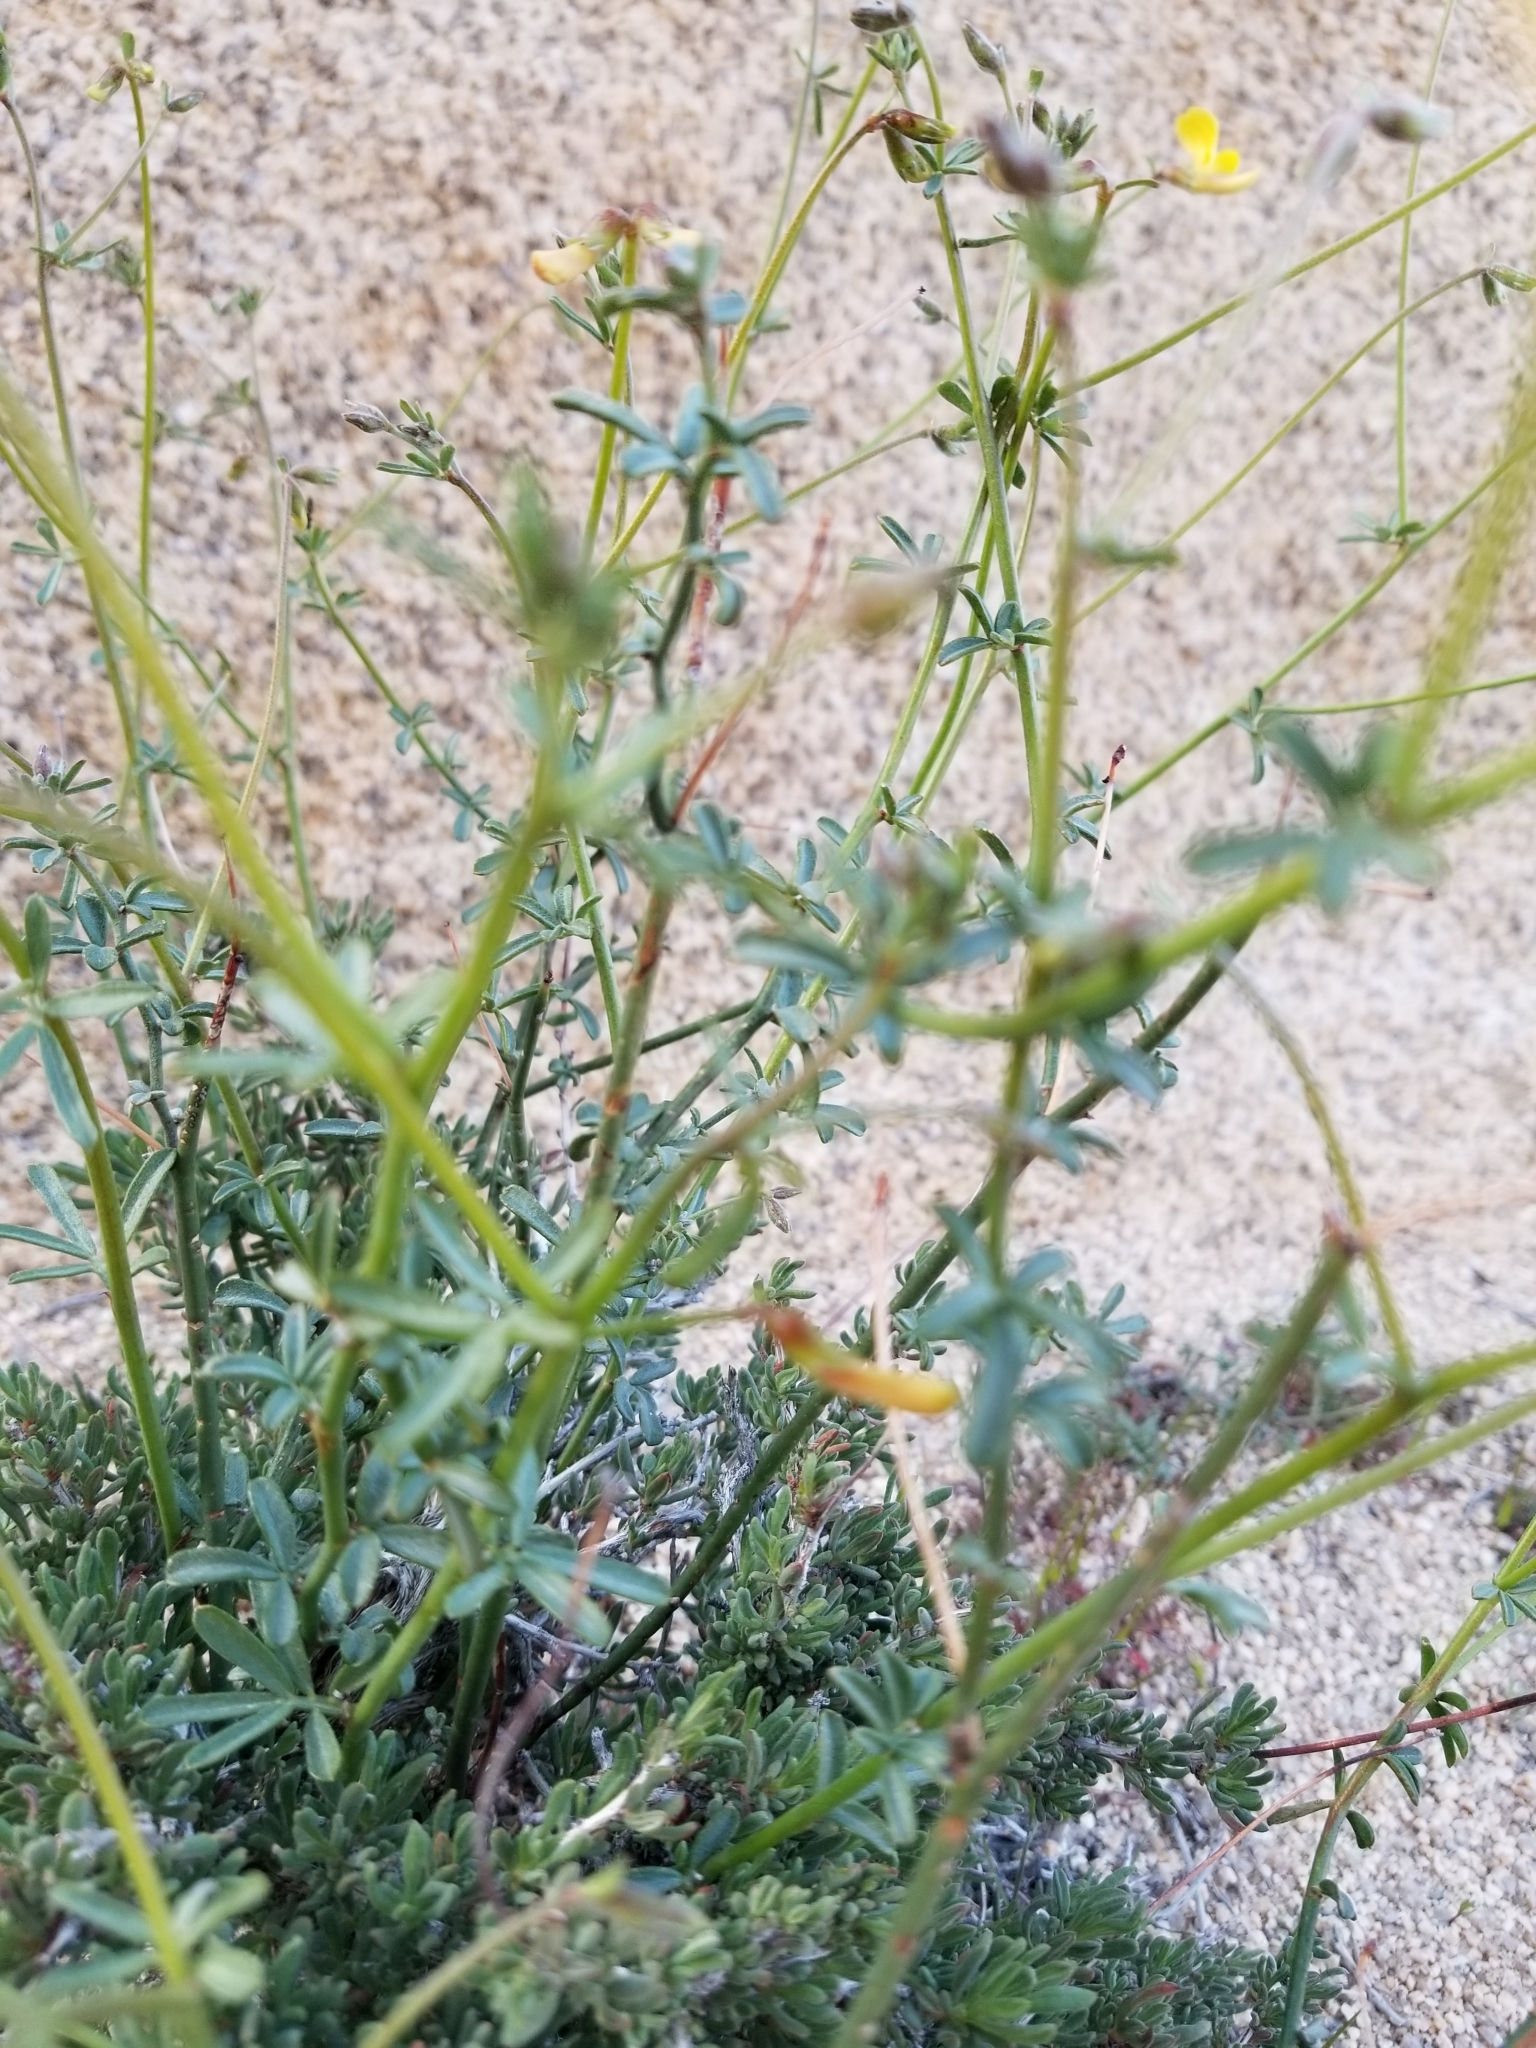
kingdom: Plantae
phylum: Tracheophyta
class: Magnoliopsida
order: Fabales
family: Fabaceae
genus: Acmispon
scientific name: Acmispon rigidus
